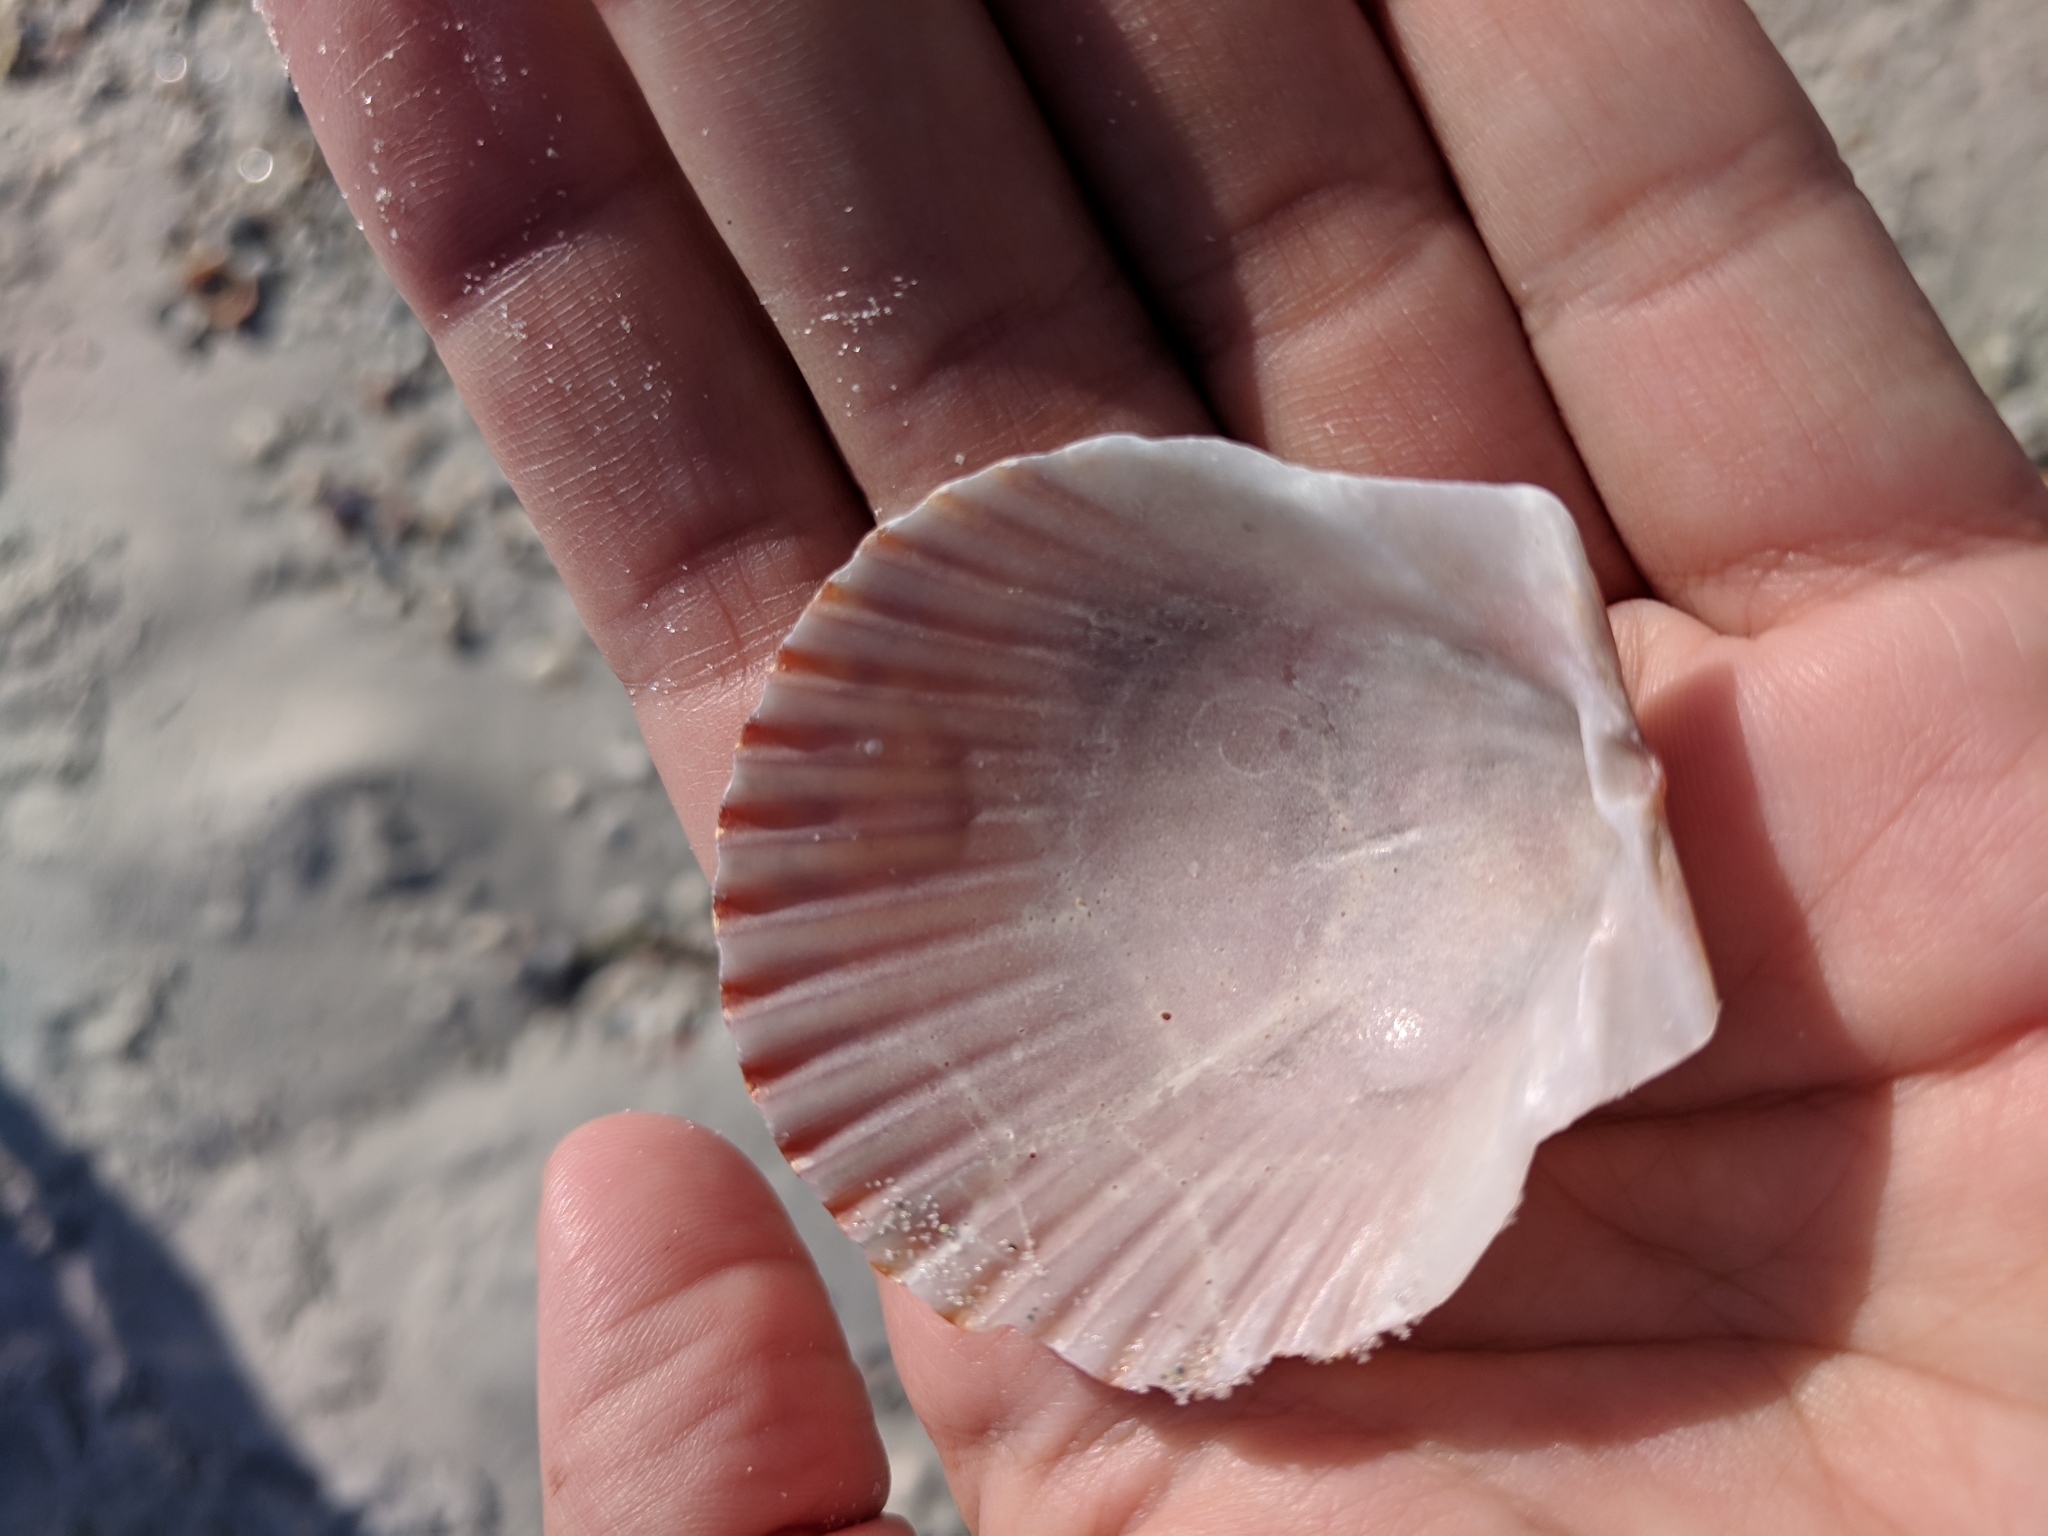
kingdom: Animalia
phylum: Mollusca
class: Bivalvia
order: Pectinida
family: Pectinidae
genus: Argopecten
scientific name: Argopecten irradians
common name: Atlantic bay scallop
